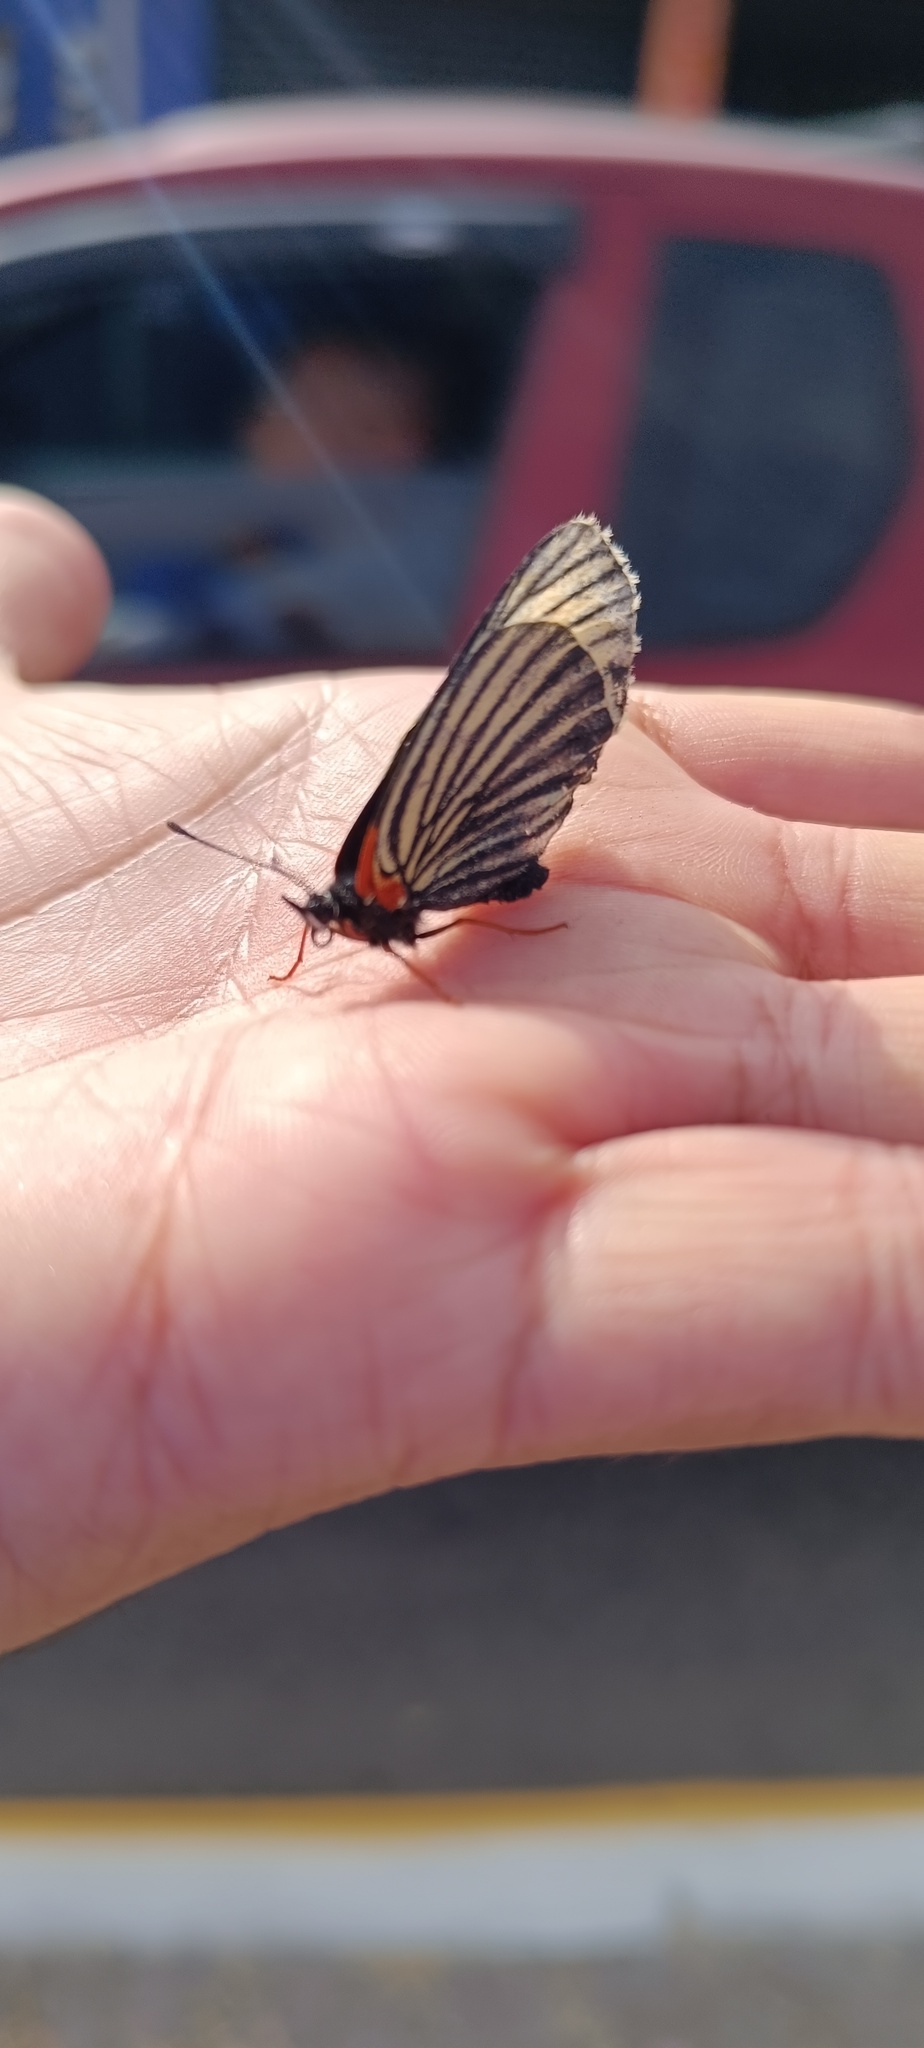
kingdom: Animalia
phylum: Arthropoda
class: Insecta
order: Lepidoptera
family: Nymphalidae
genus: Chlosyne
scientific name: Chlosyne ehrenbergii
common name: White-rayed patch
